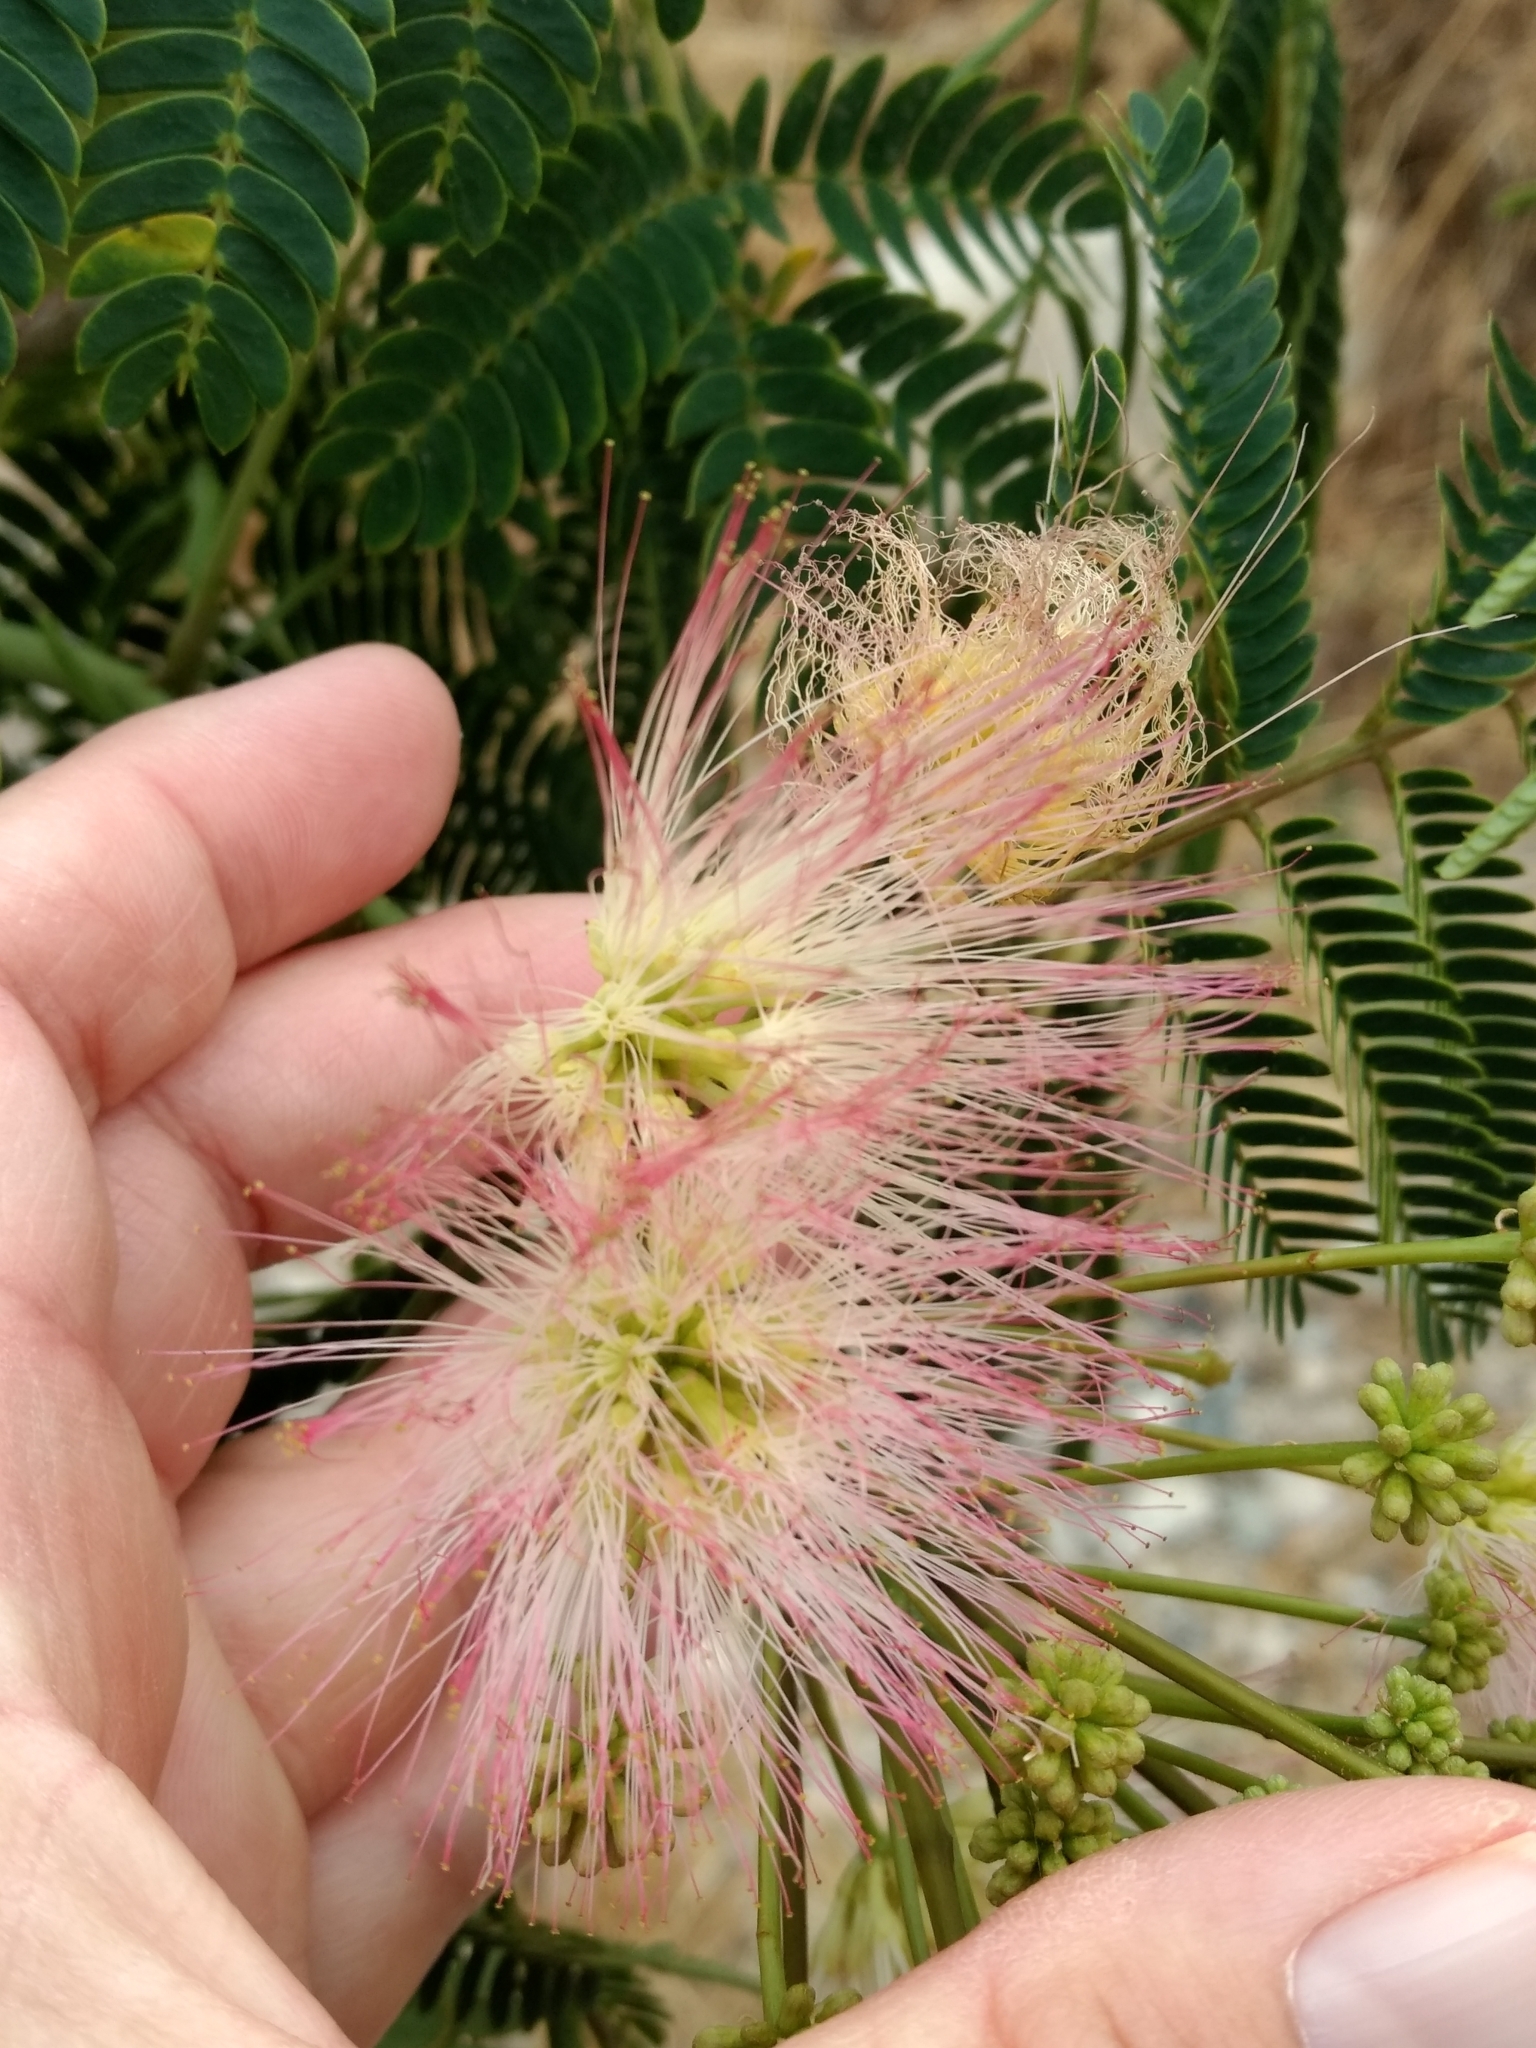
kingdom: Plantae
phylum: Tracheophyta
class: Magnoliopsida
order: Fabales
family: Fabaceae
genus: Albizia
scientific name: Albizia julibrissin
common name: Silktree
